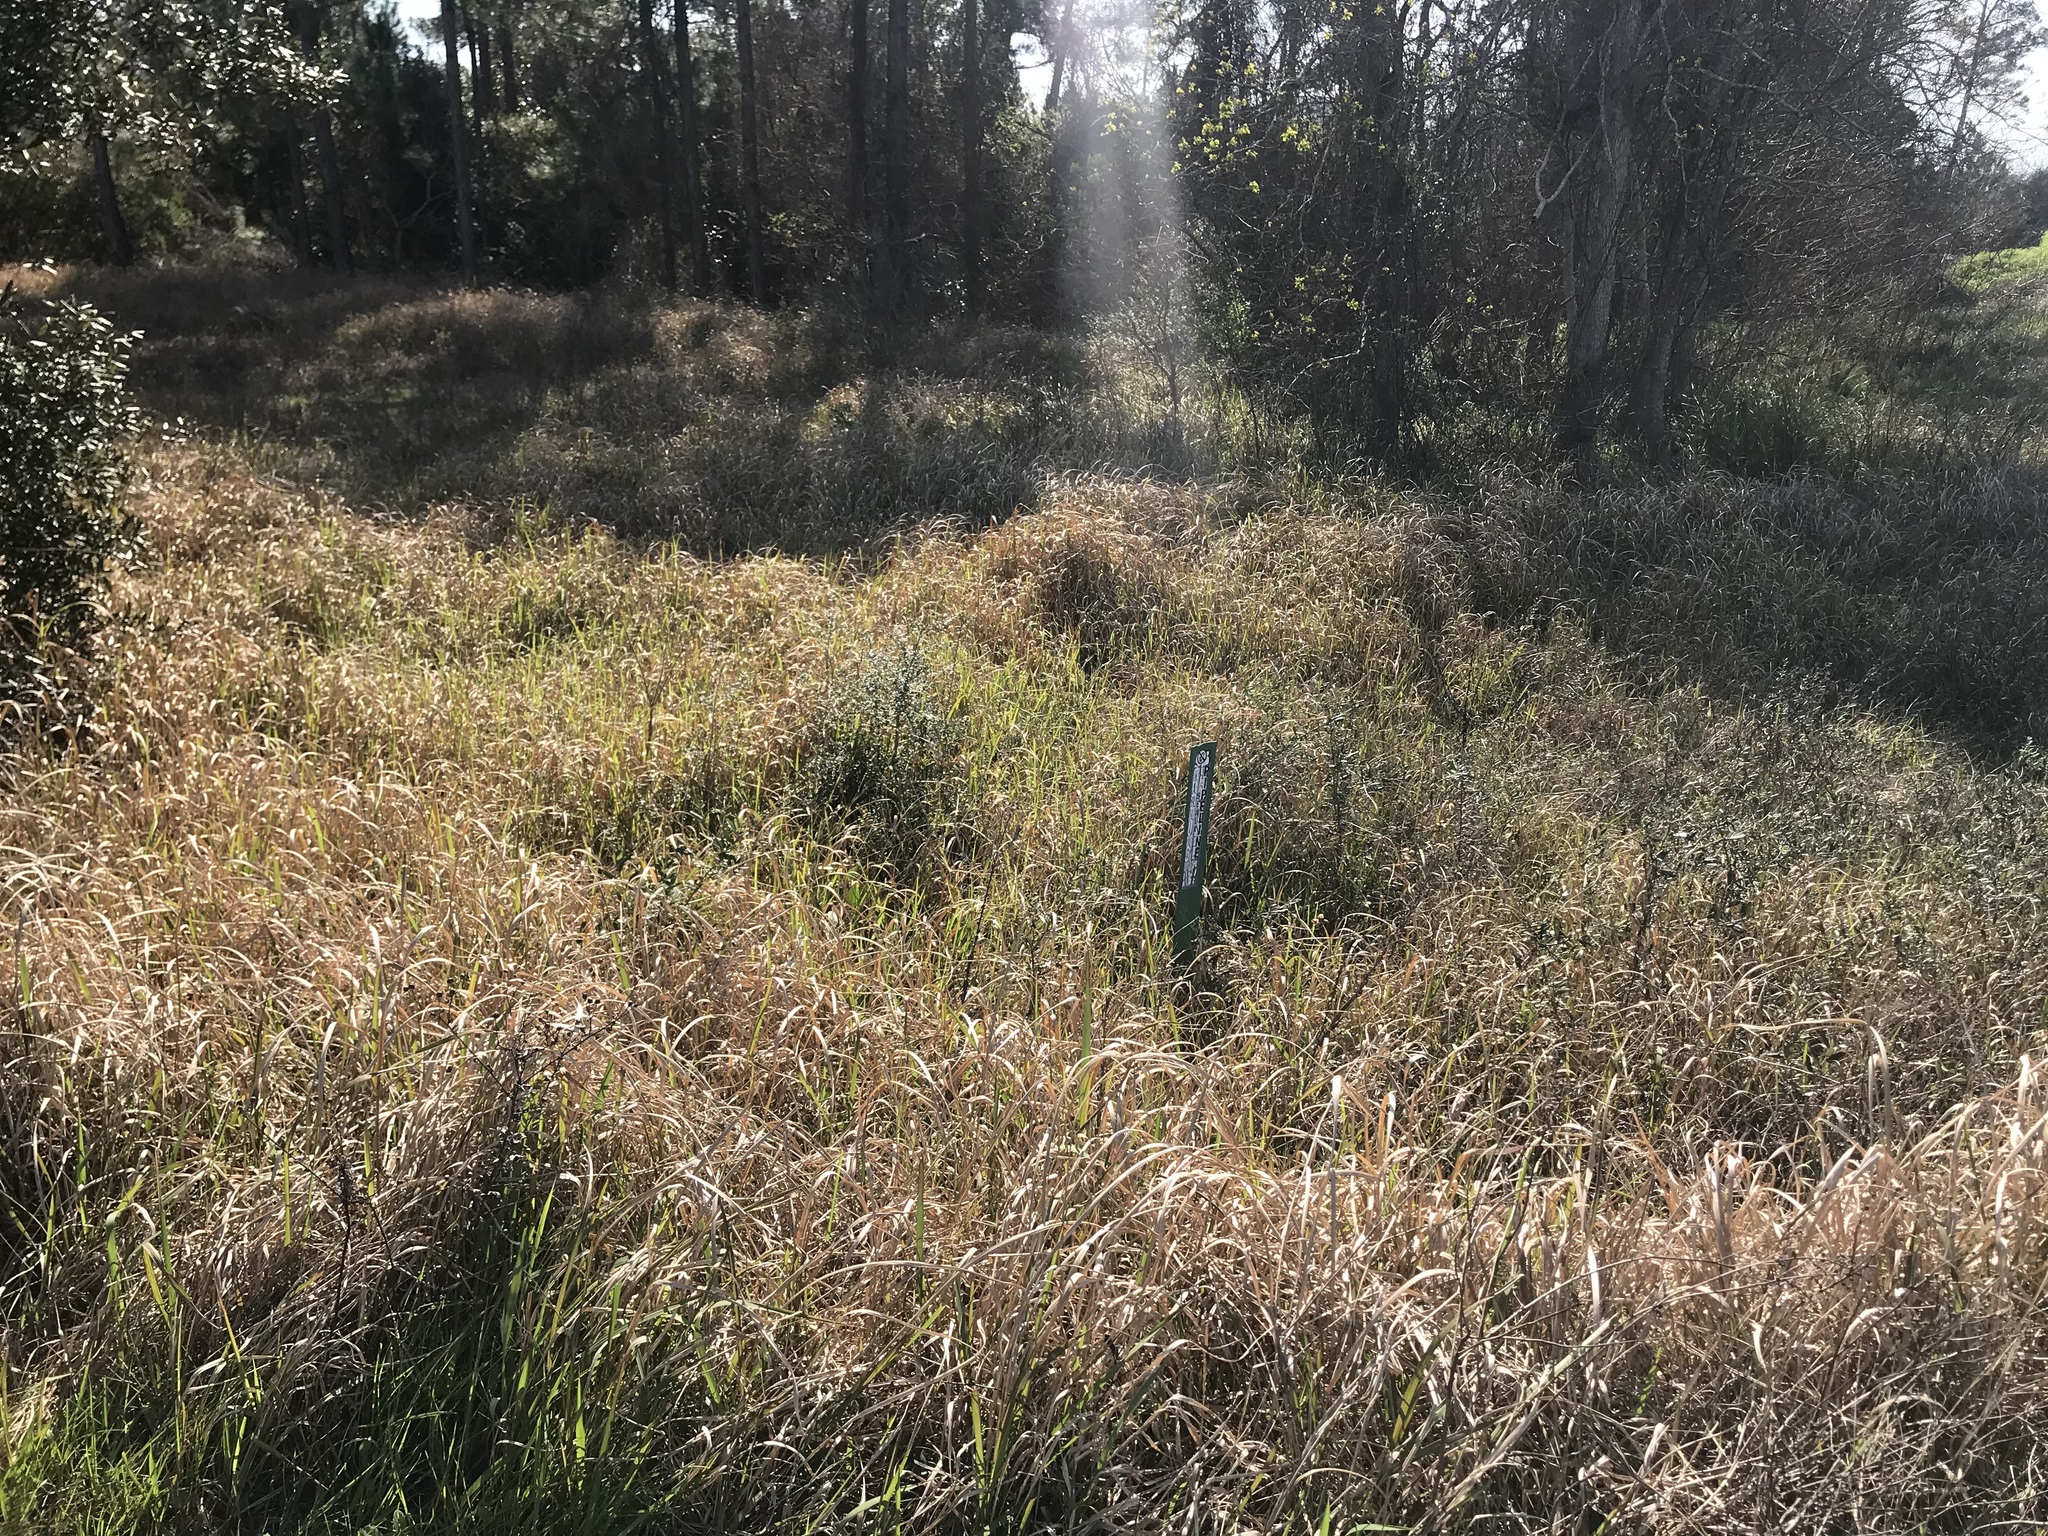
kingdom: Plantae
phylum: Tracheophyta
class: Liliopsida
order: Poales
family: Poaceae
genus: Imperata
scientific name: Imperata cylindrica
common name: Cogongrass
